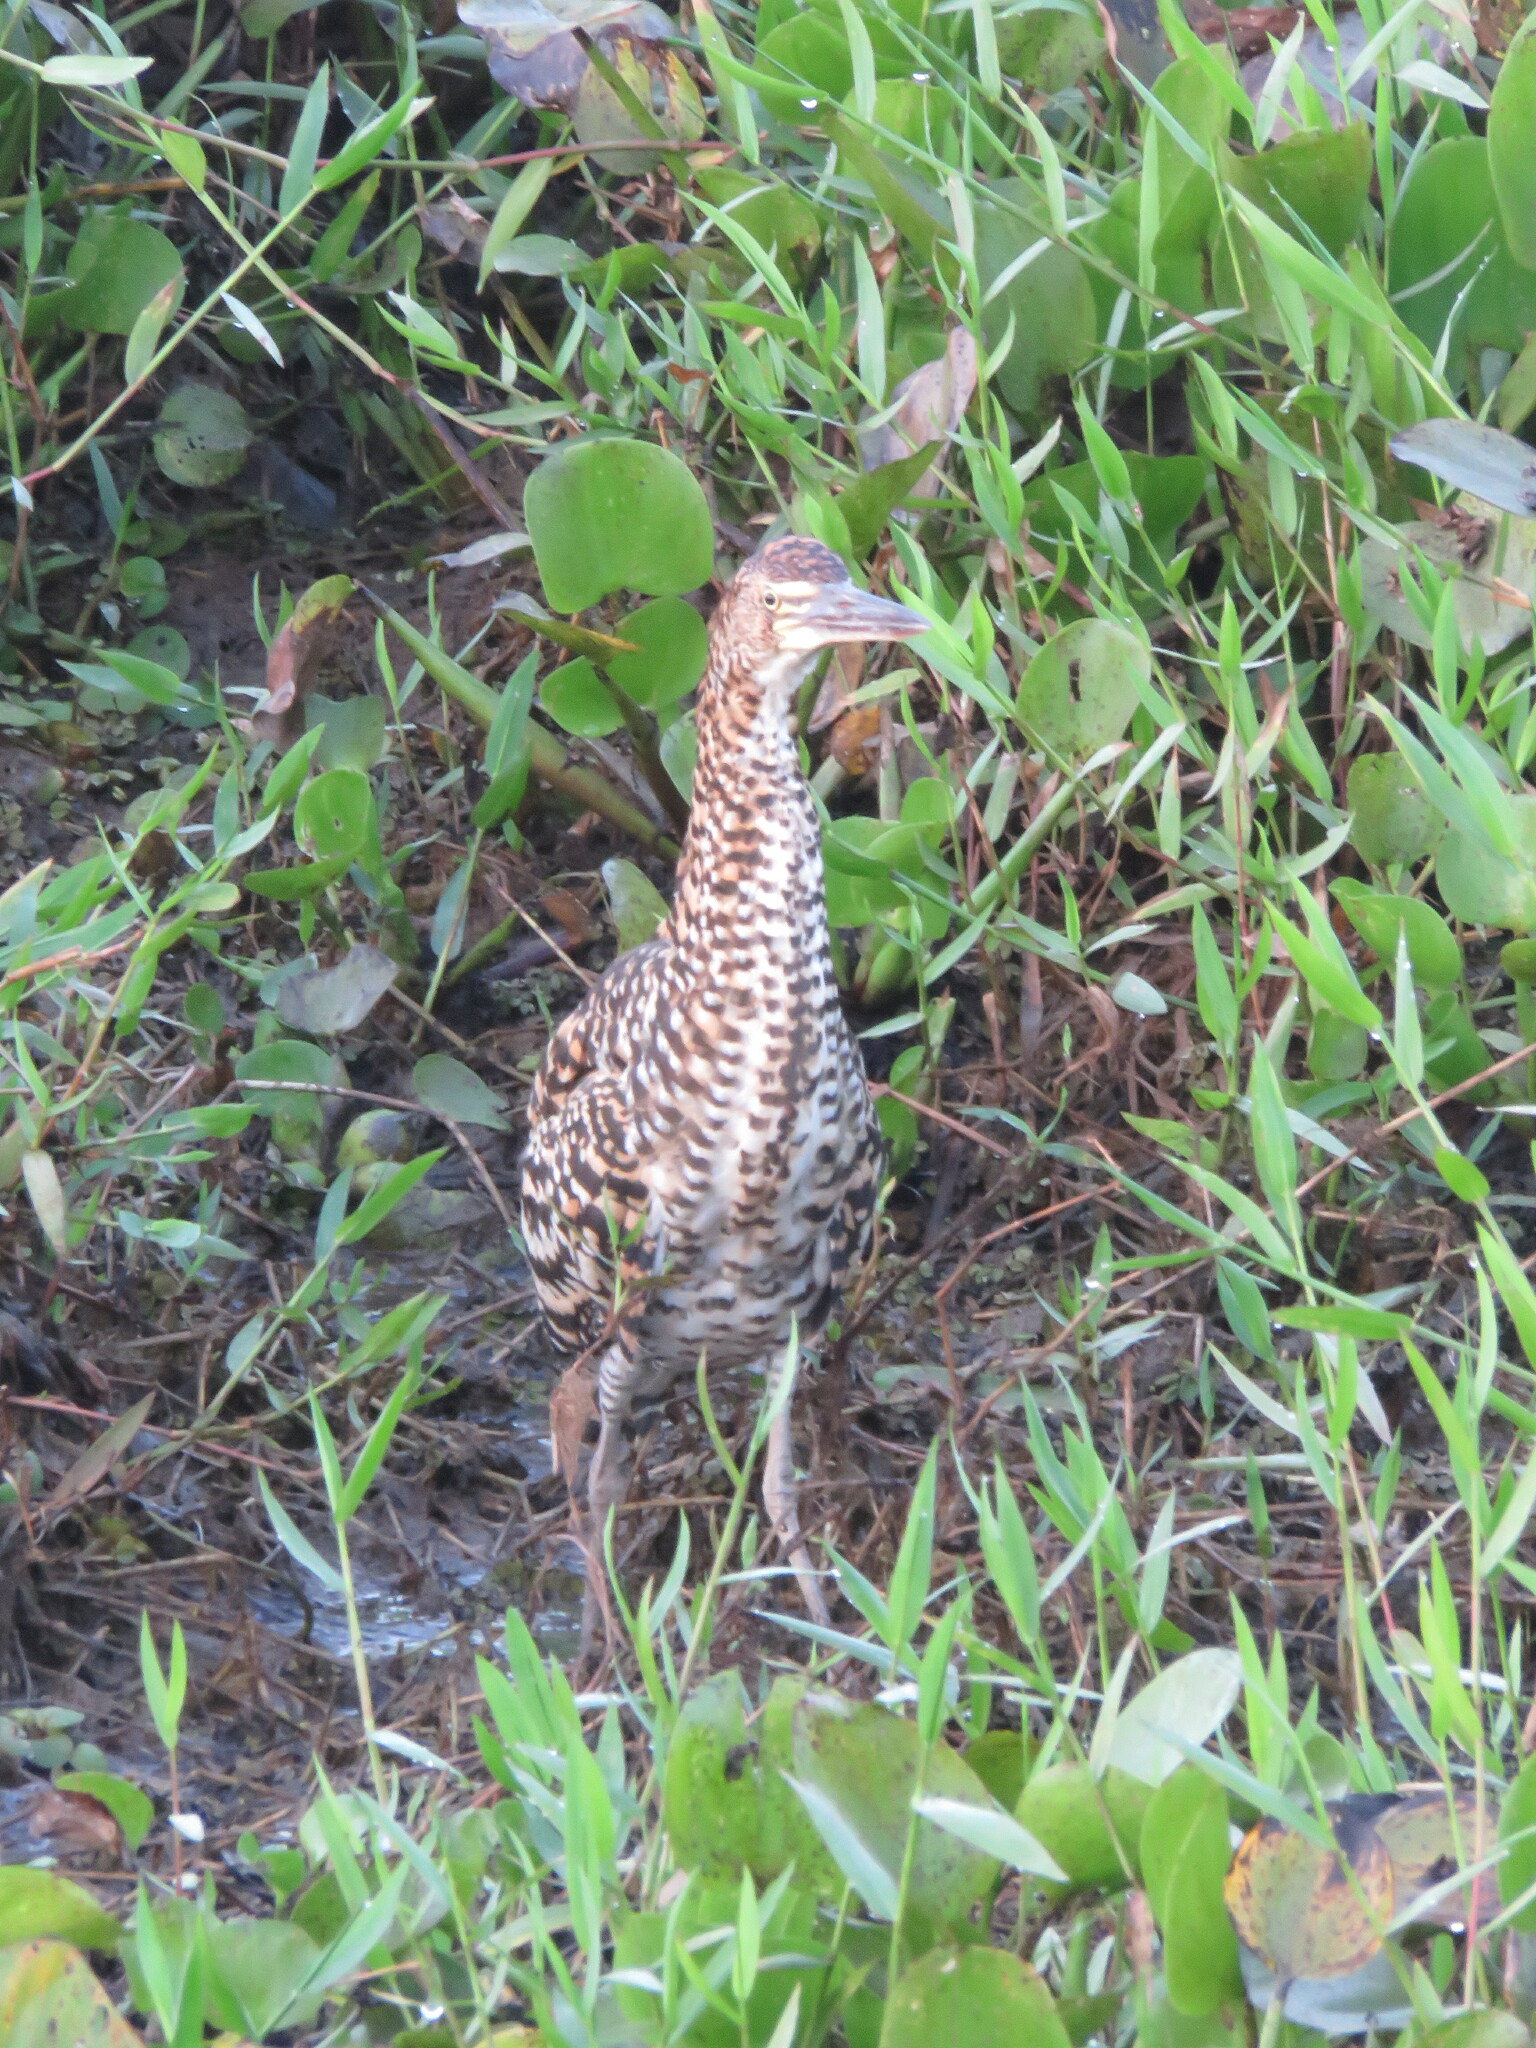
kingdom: Animalia
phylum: Chordata
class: Aves
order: Pelecaniformes
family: Ardeidae
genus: Tigrisoma
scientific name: Tigrisoma lineatum
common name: Rufescent tiger-heron
